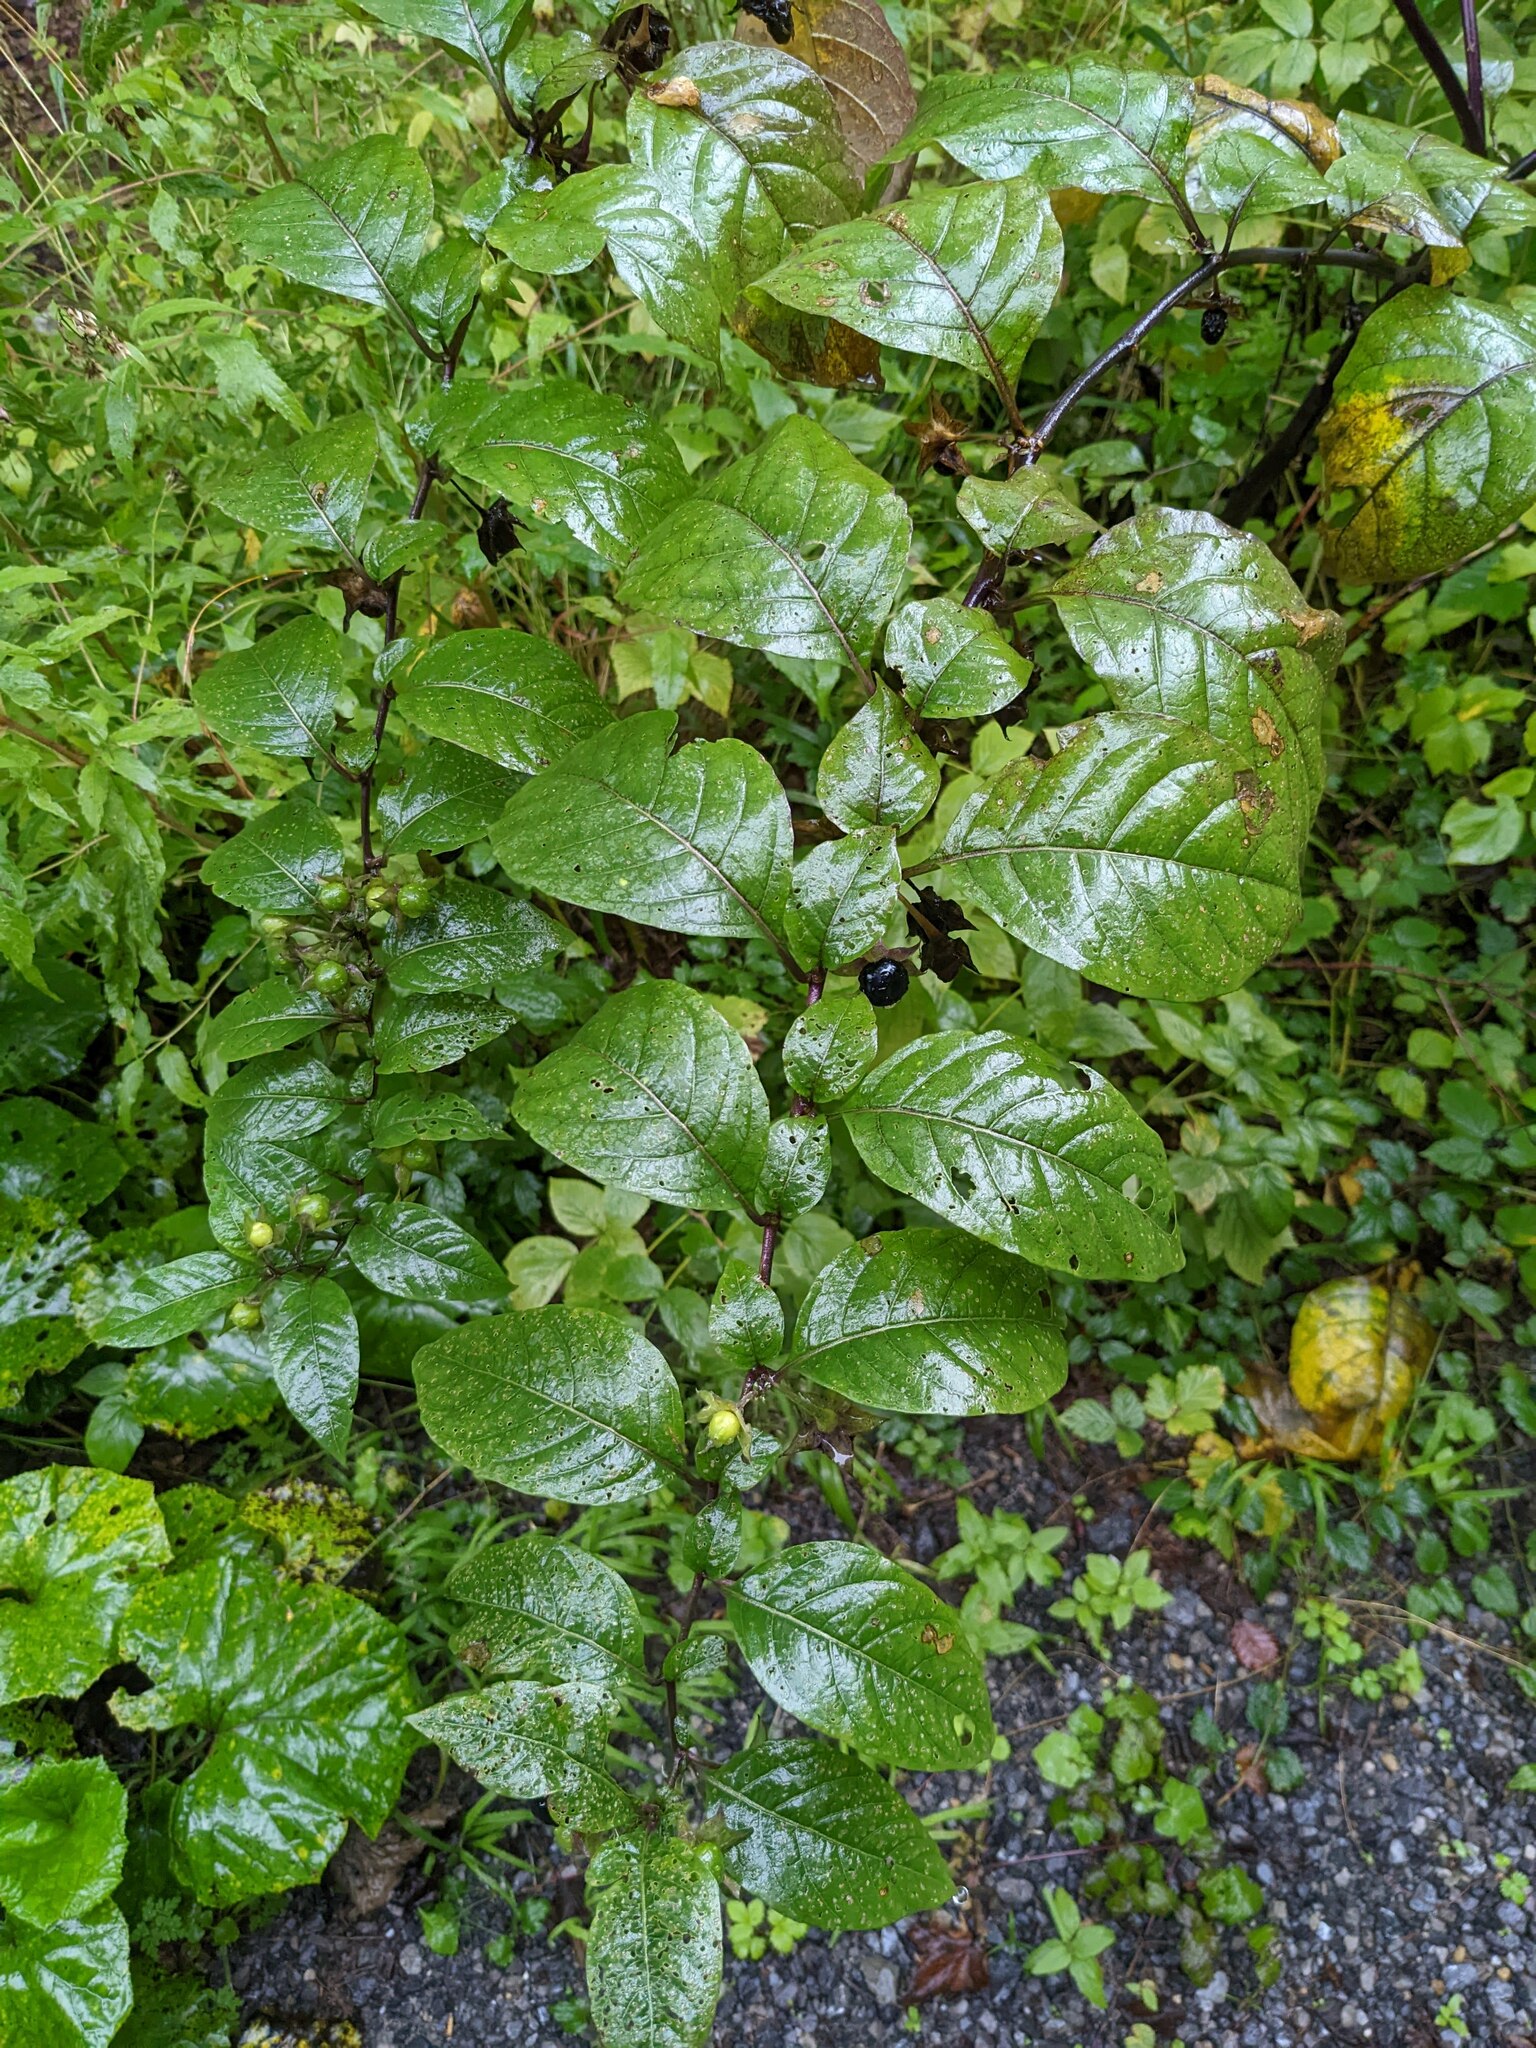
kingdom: Plantae
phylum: Tracheophyta
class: Magnoliopsida
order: Solanales
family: Solanaceae
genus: Atropa
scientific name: Atropa belladonna
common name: Deadly nightshade
